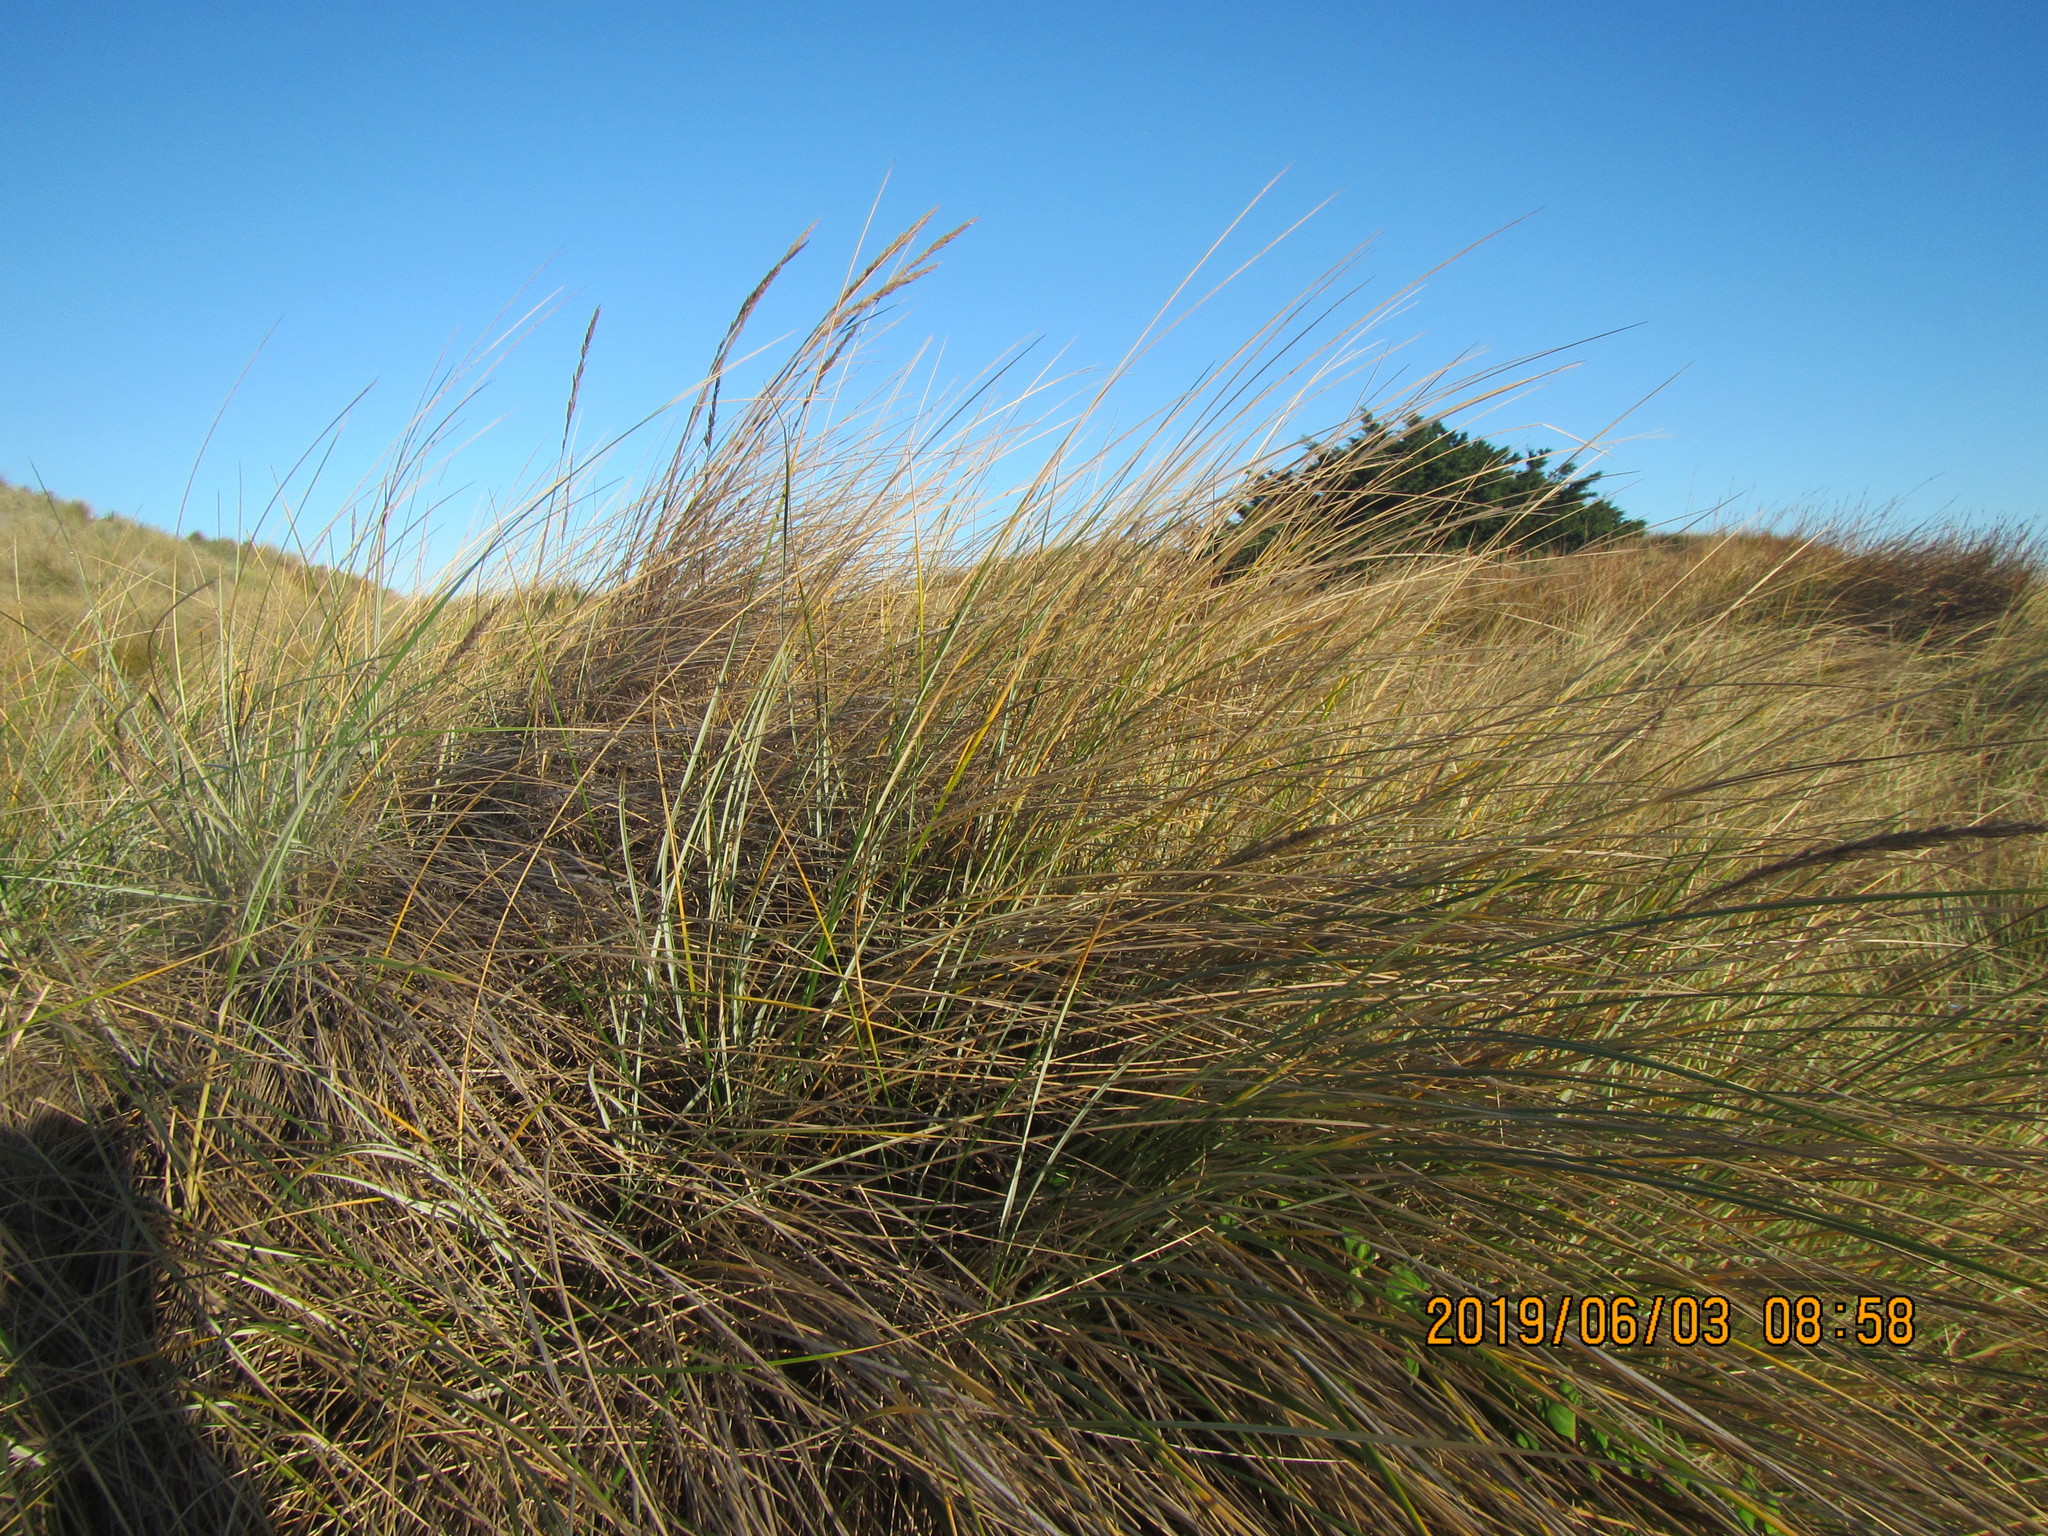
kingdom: Plantae
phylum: Tracheophyta
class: Liliopsida
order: Poales
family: Poaceae
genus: Calamagrostis
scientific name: Calamagrostis arenaria
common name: European beachgrass
